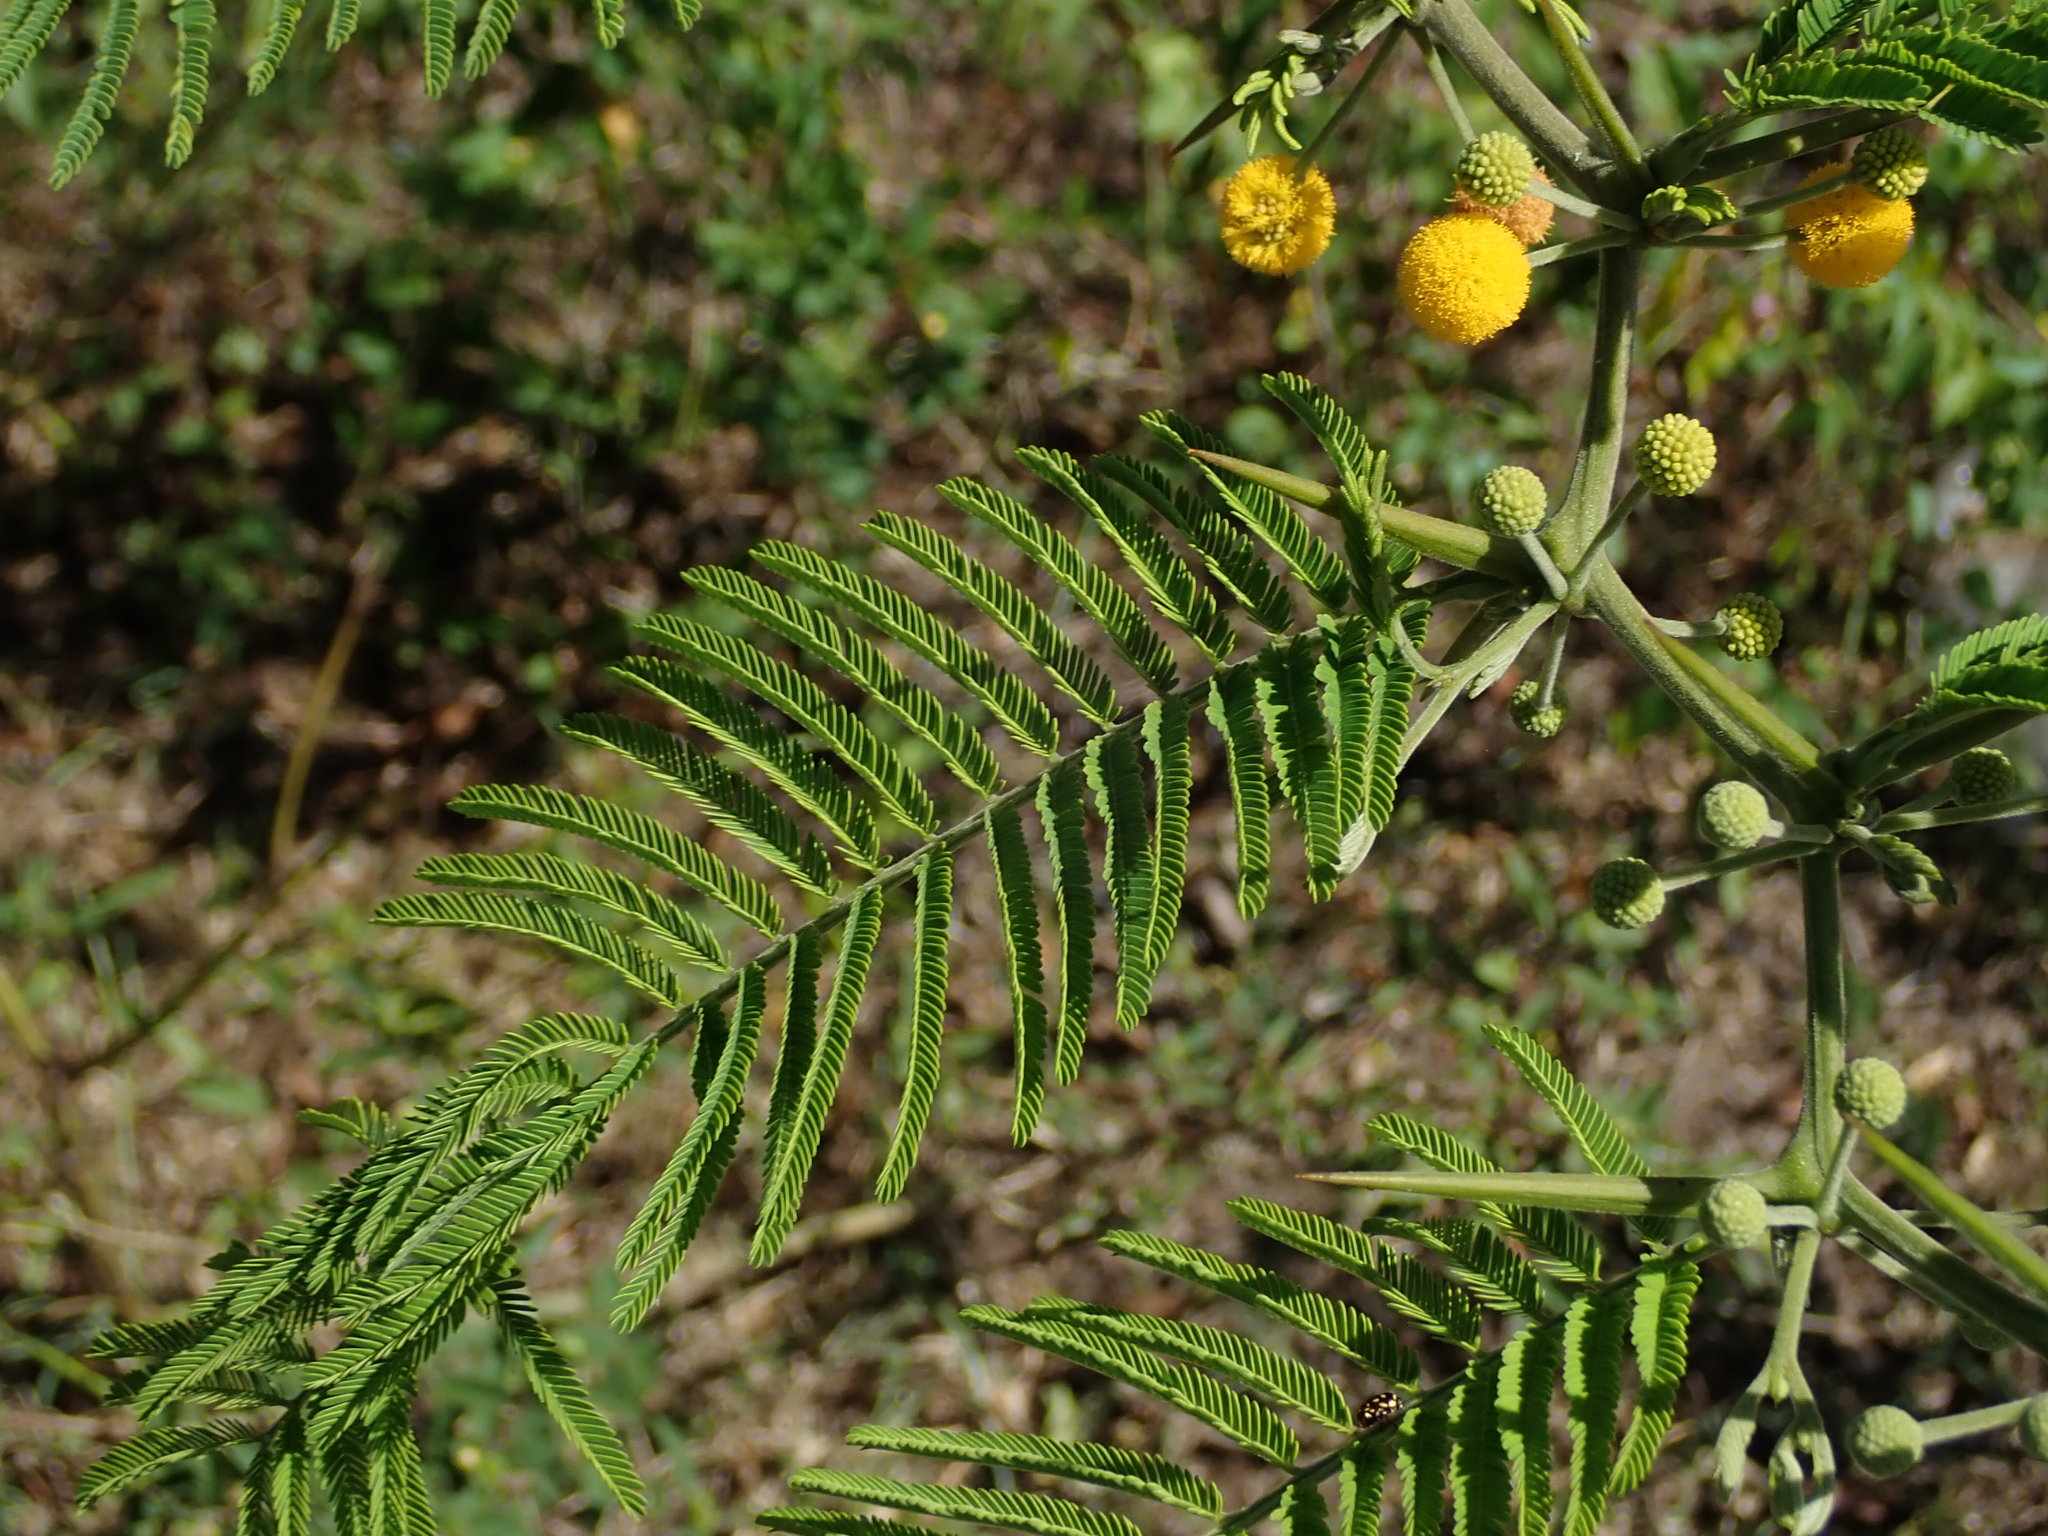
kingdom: Plantae
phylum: Tracheophyta
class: Magnoliopsida
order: Fabales
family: Fabaceae
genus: Vachellia
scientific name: Vachellia macracantha
